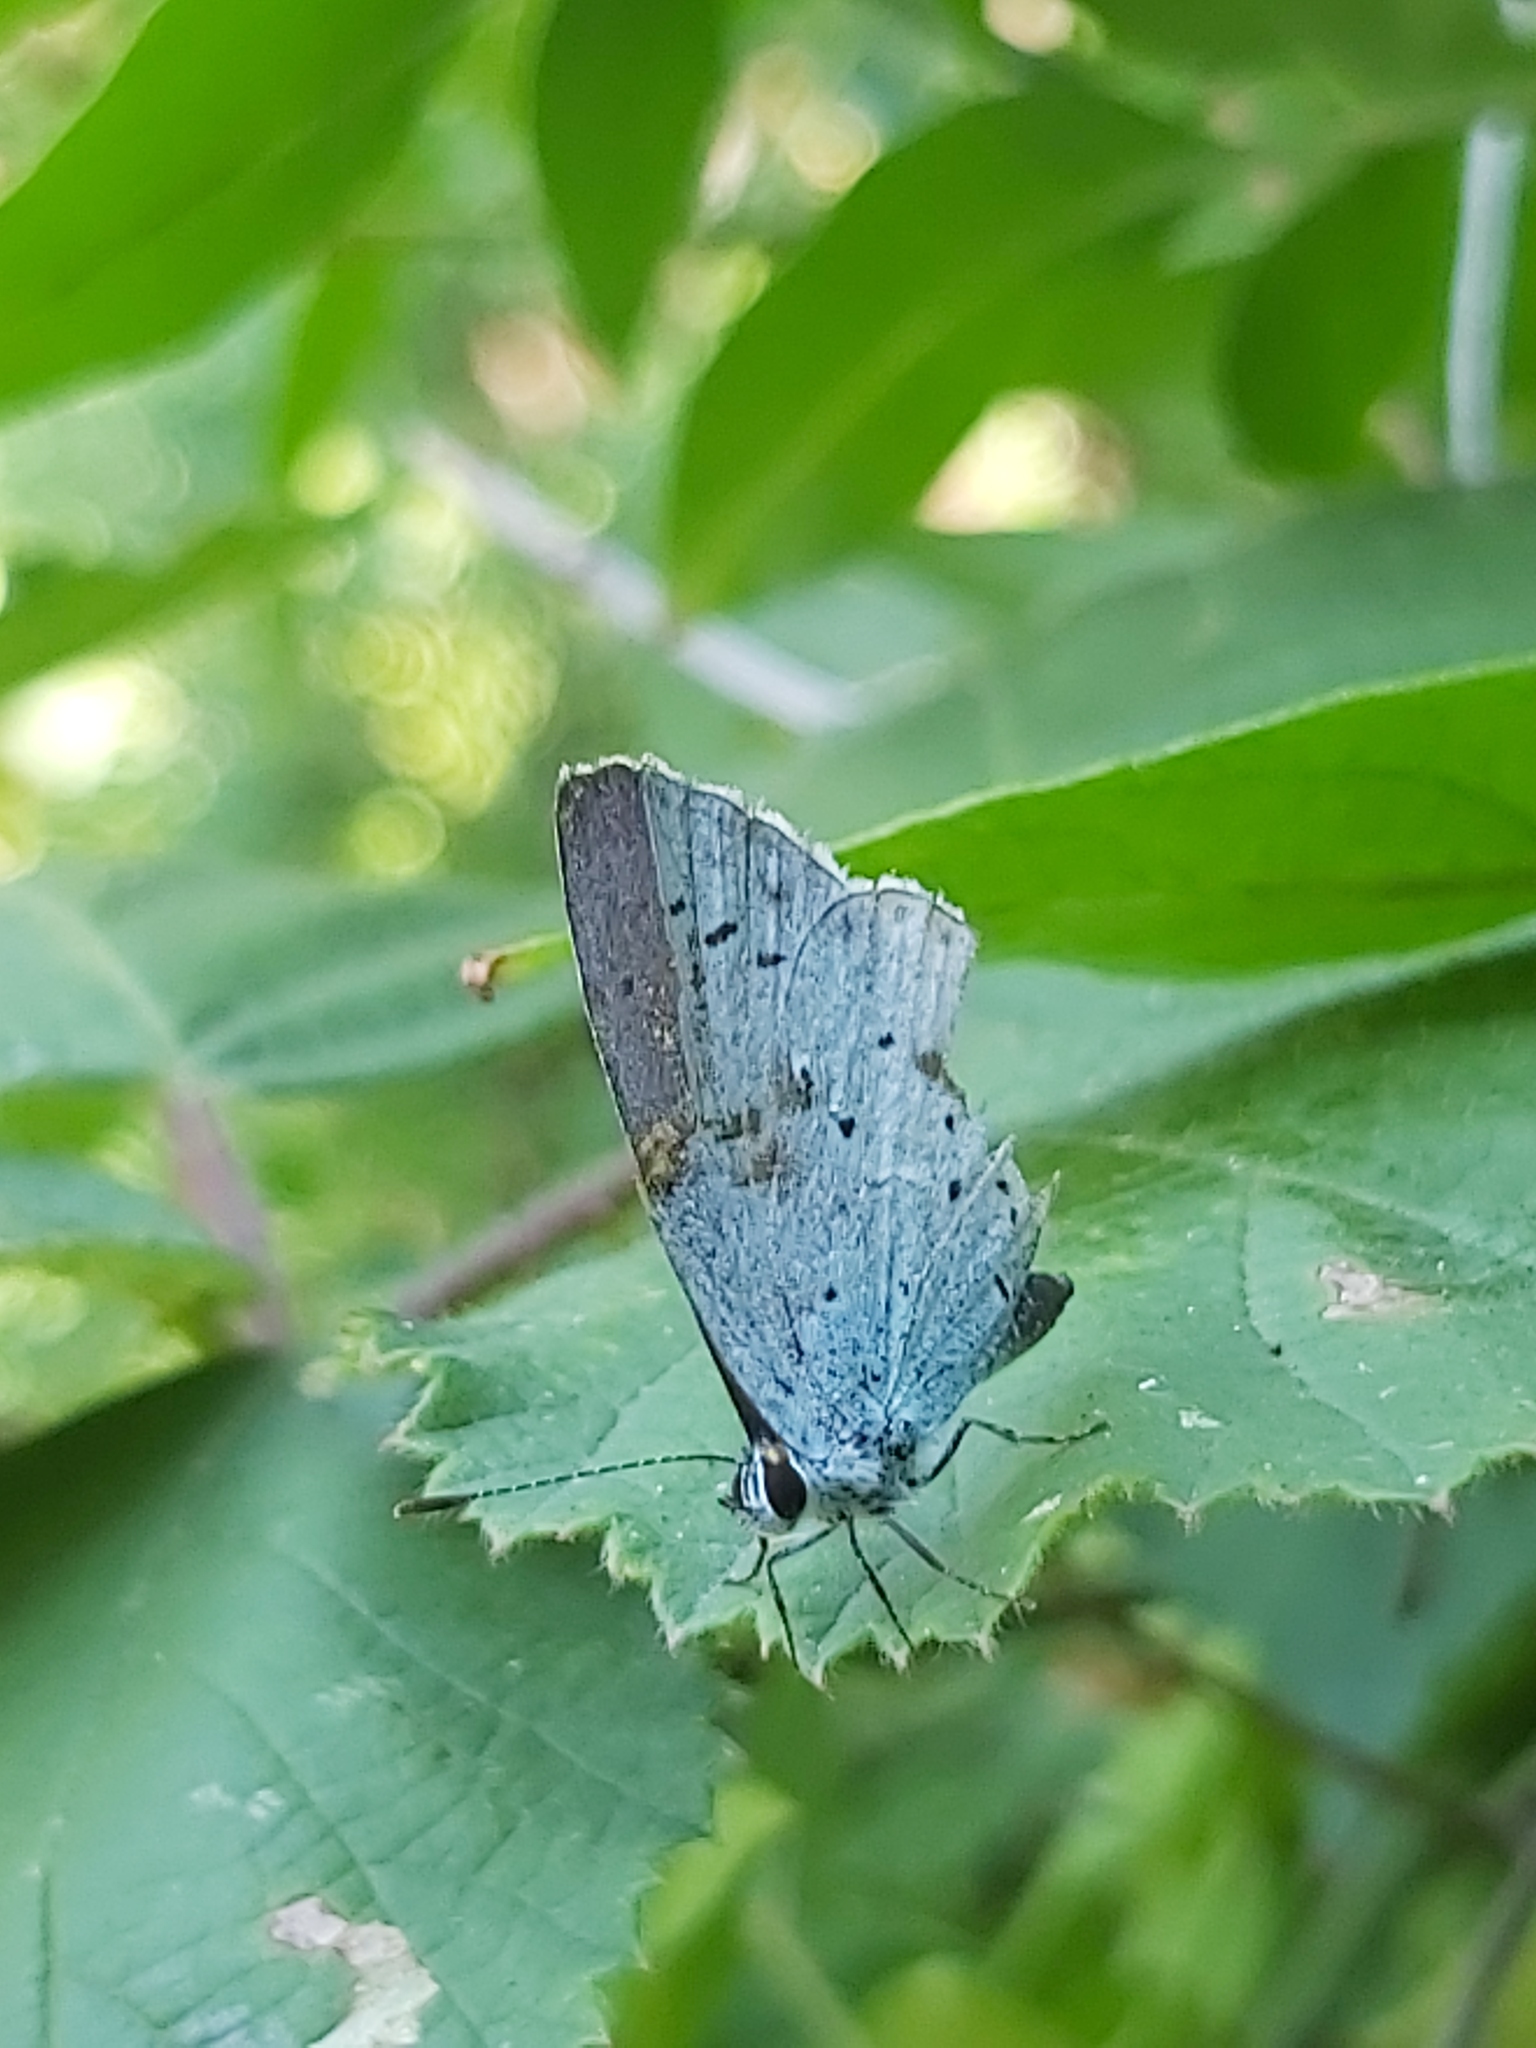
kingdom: Animalia
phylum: Arthropoda
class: Insecta
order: Lepidoptera
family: Lycaenidae
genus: Celastrina
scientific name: Celastrina argiolus
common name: Holly blue
